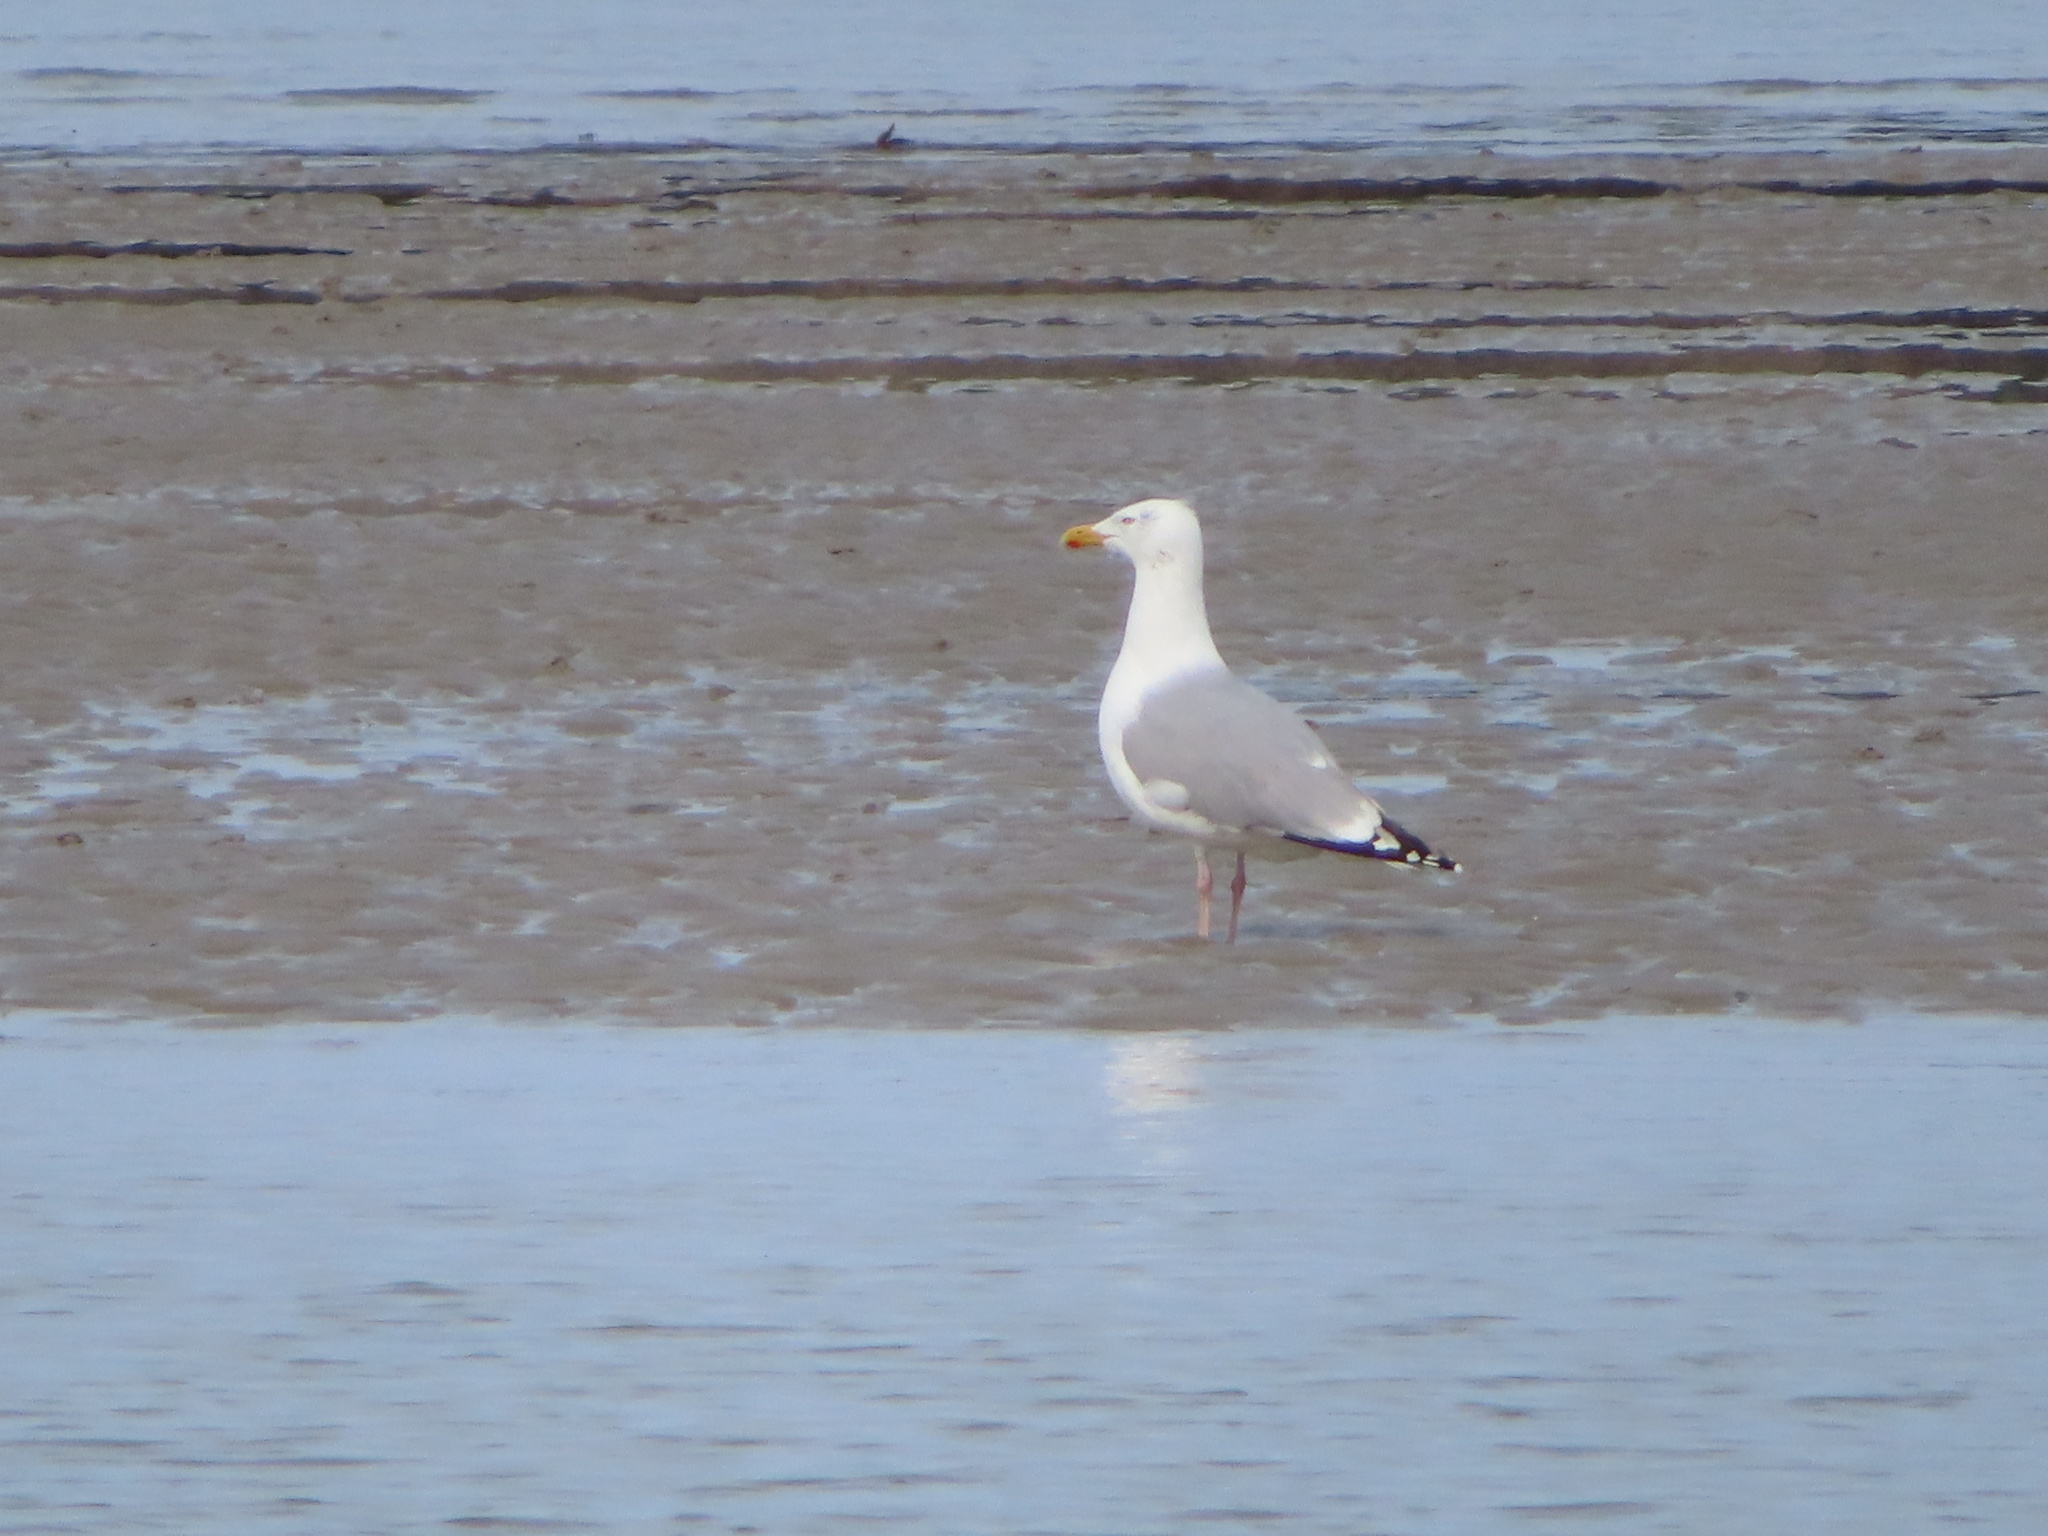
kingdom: Animalia
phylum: Chordata
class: Aves
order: Charadriiformes
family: Laridae
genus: Larus
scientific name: Larus argentatus
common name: Herring gull
